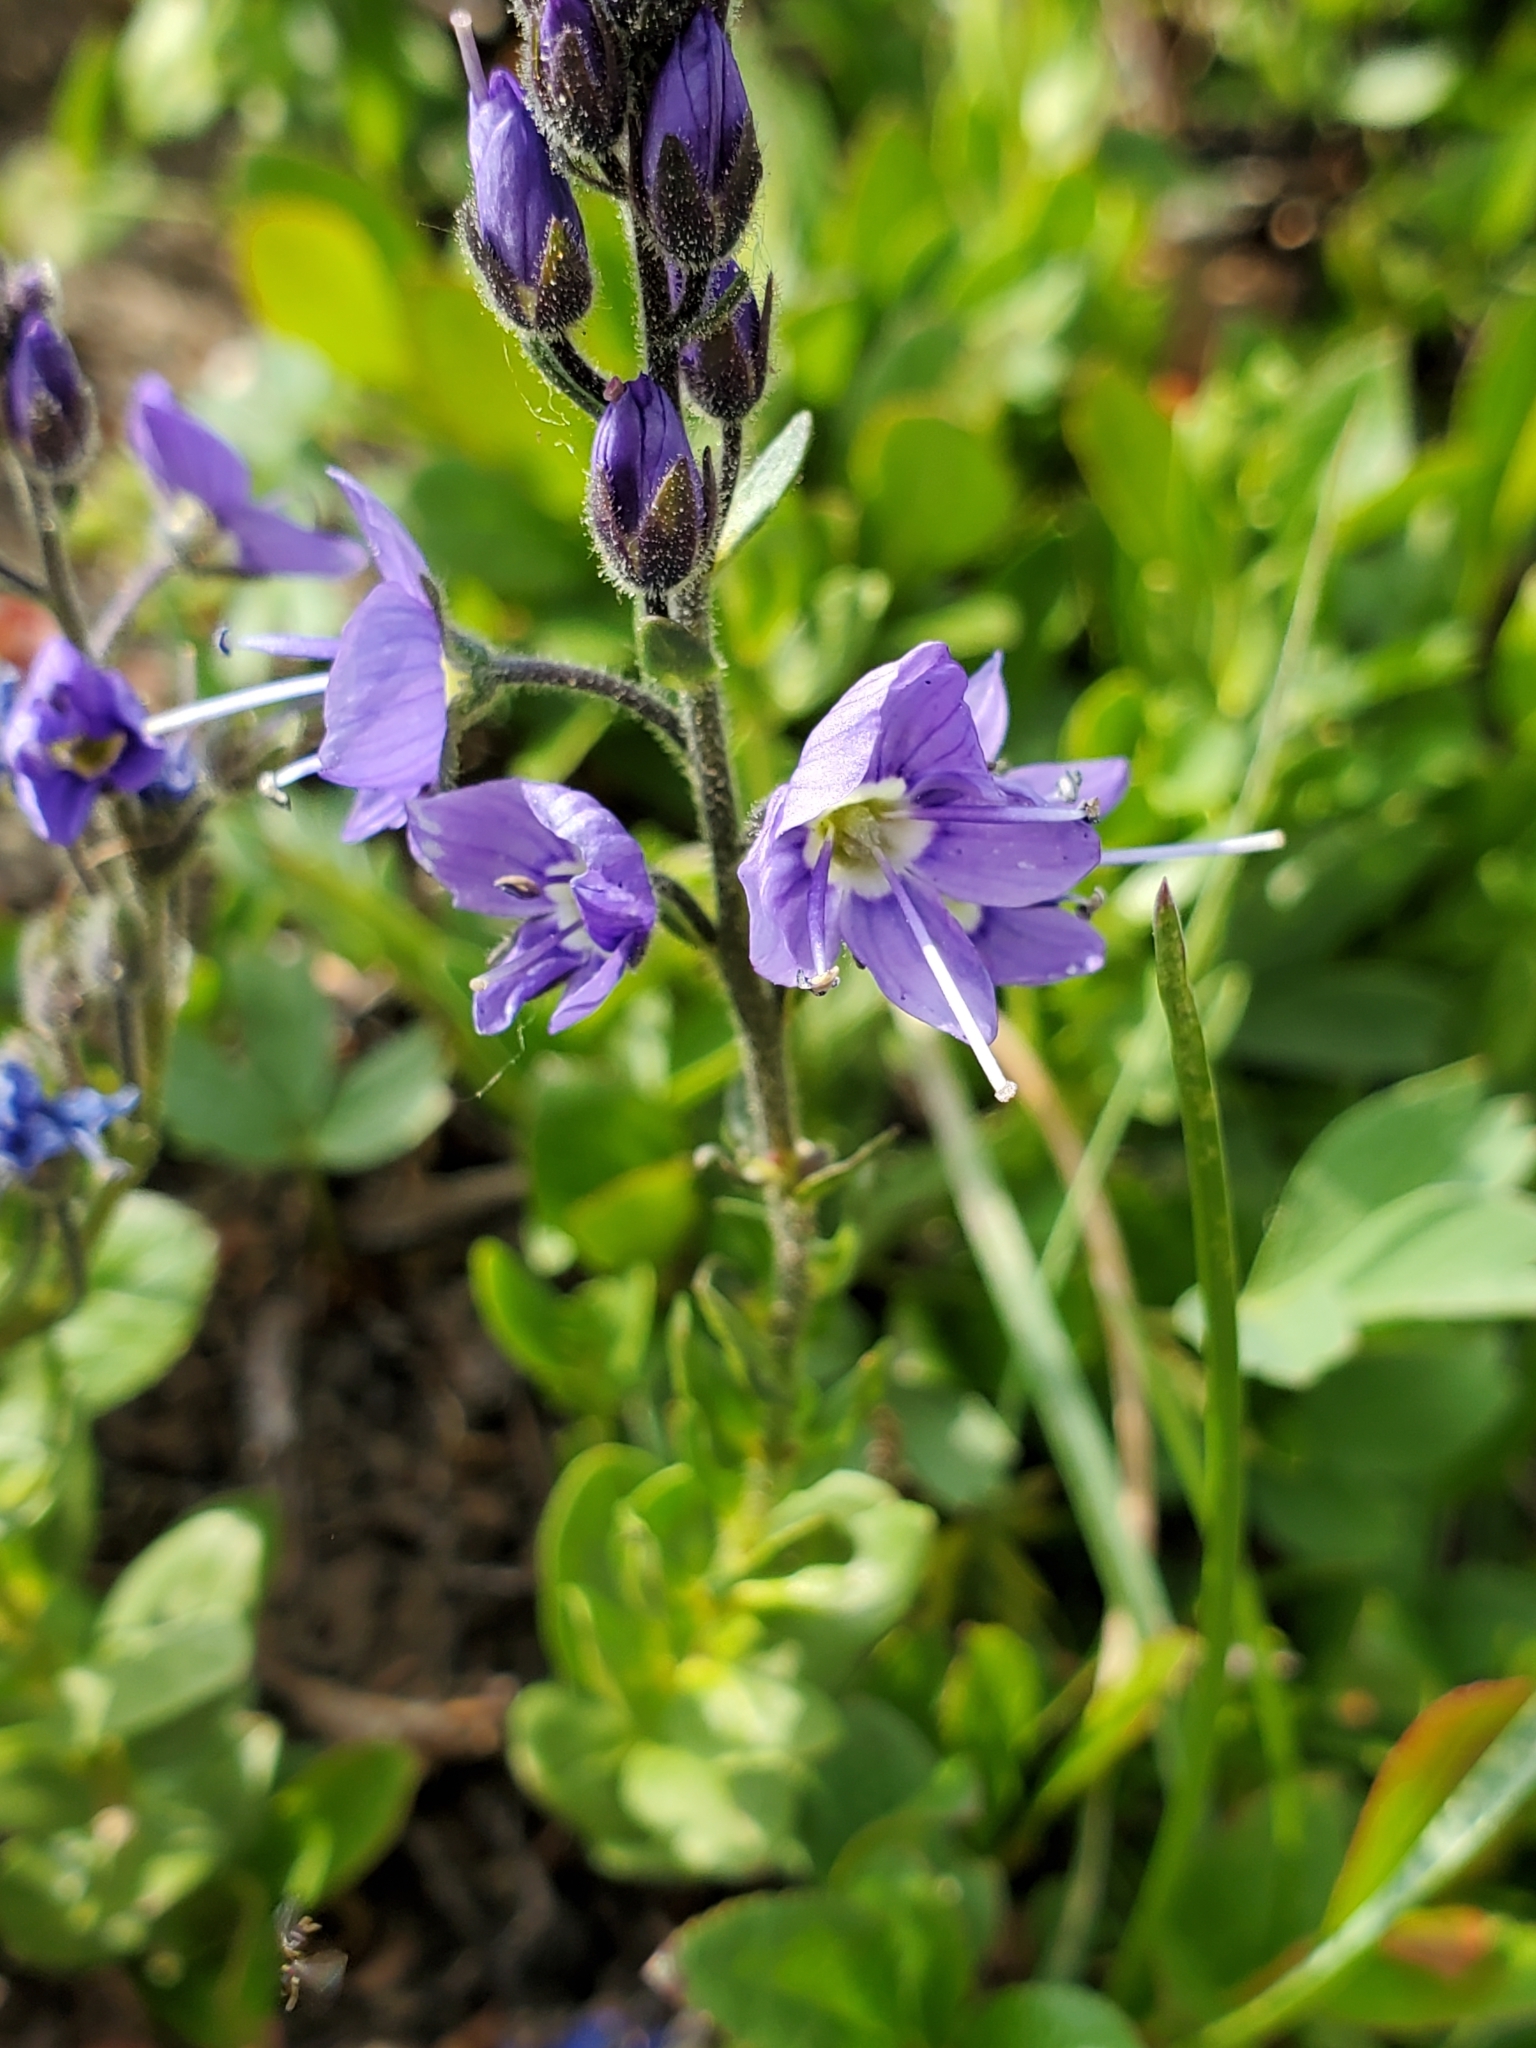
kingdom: Plantae
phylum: Tracheophyta
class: Magnoliopsida
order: Lamiales
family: Plantaginaceae
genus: Veronica
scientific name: Veronica cusickii
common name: Cusick's speedwell
